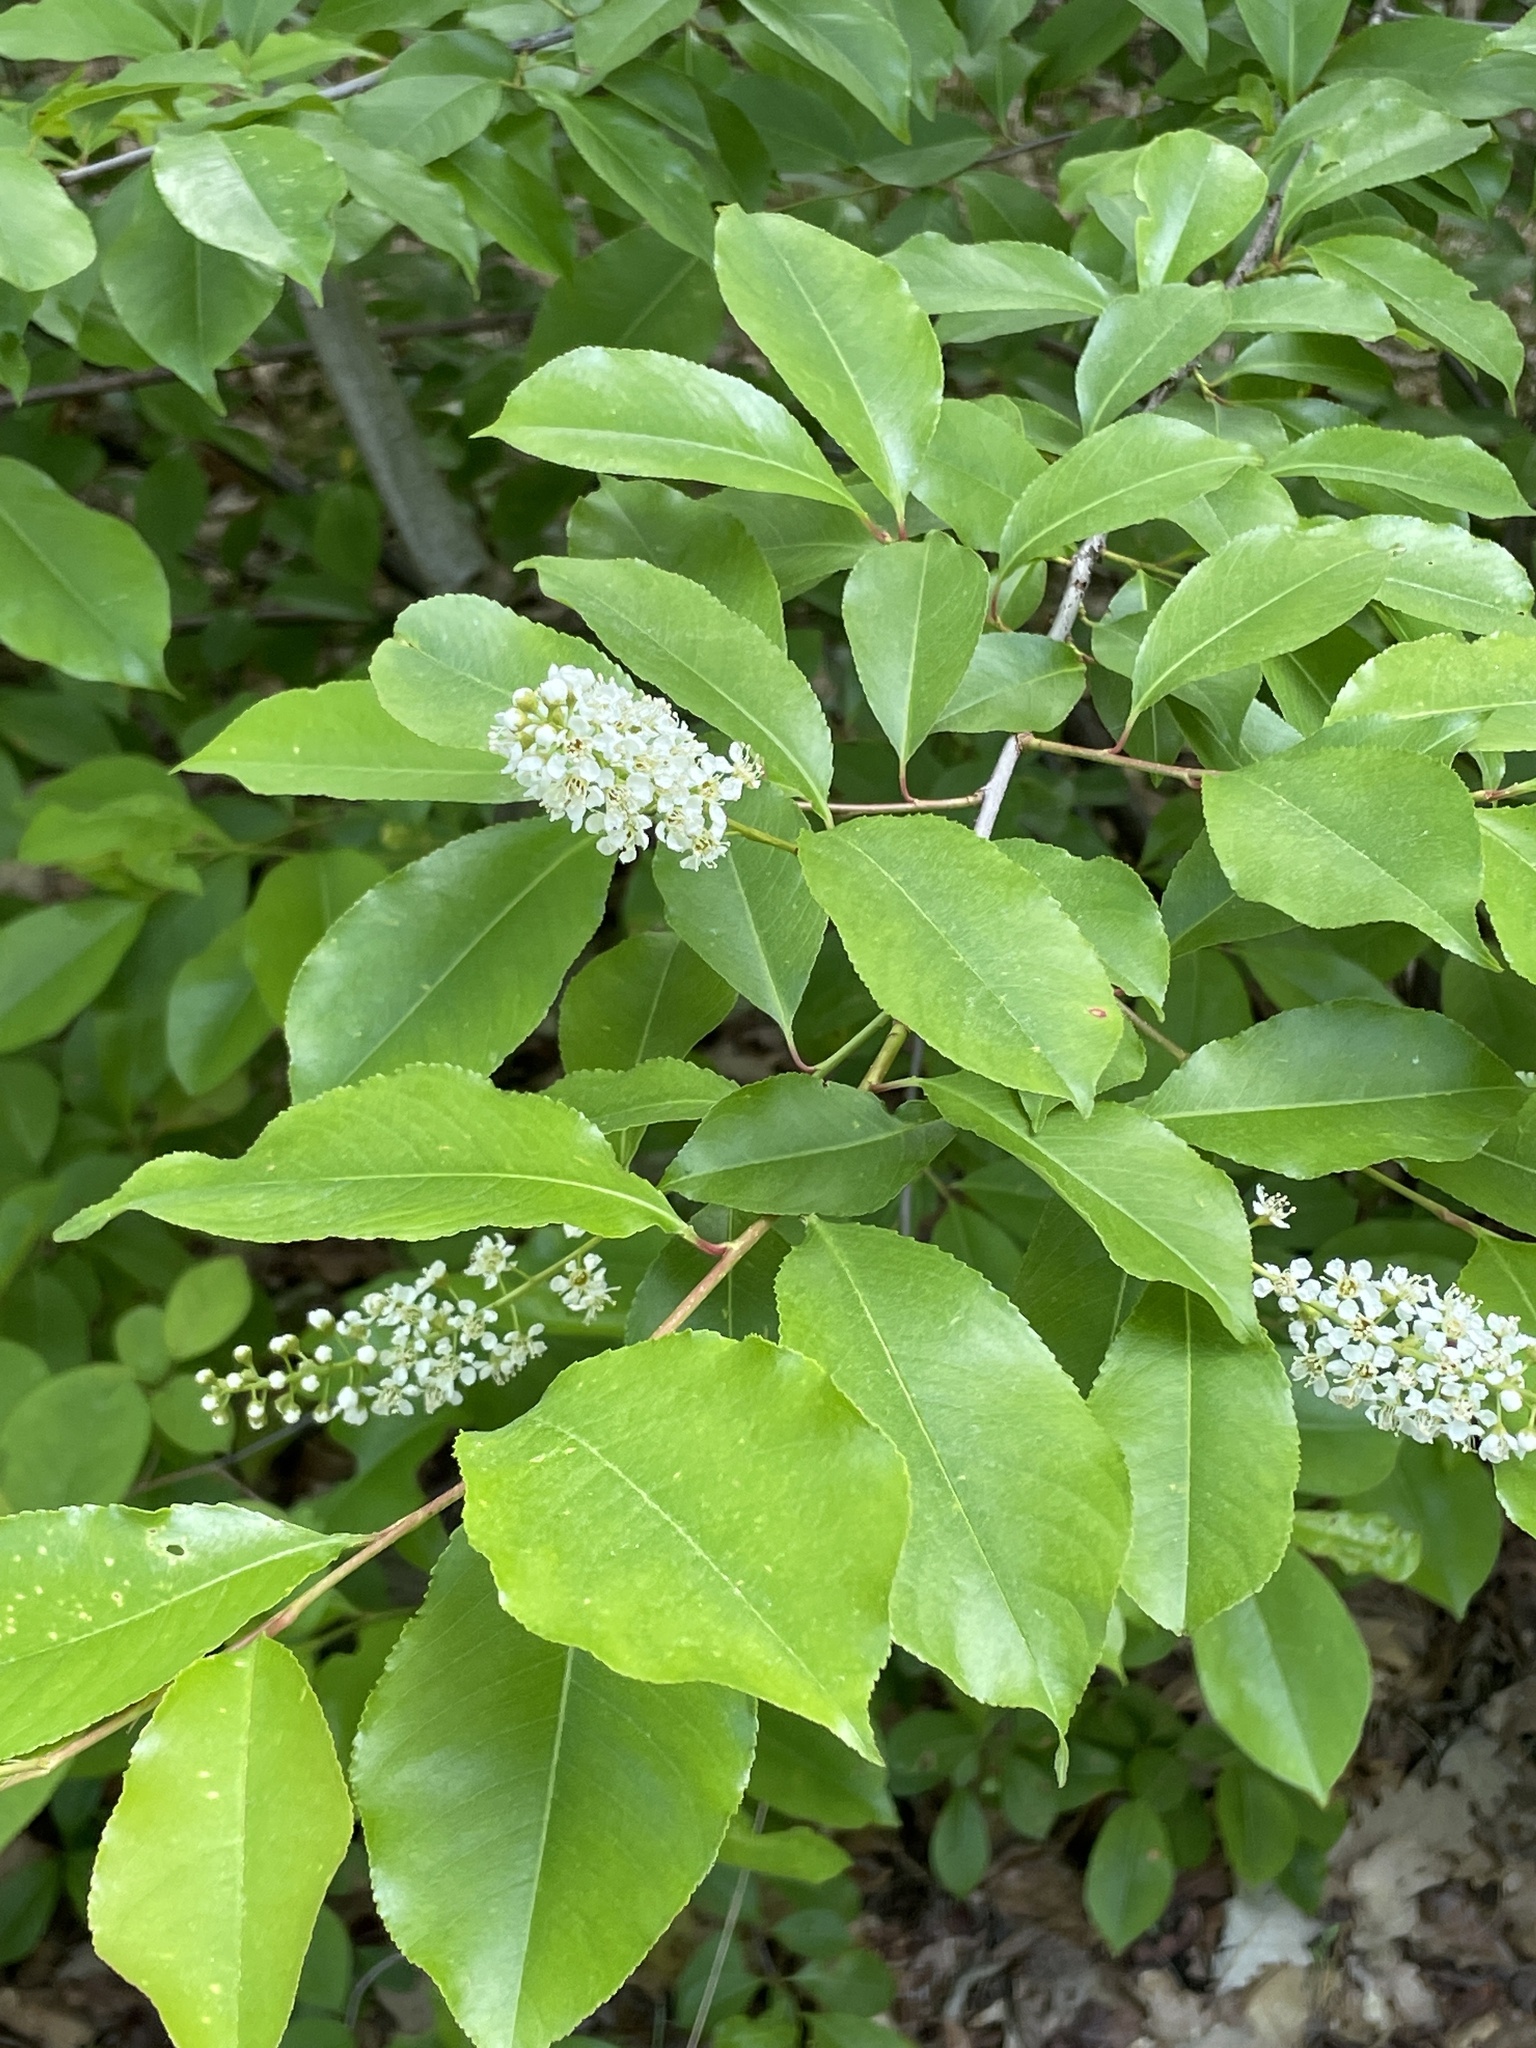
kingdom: Plantae
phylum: Tracheophyta
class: Magnoliopsida
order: Rosales
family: Rosaceae
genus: Prunus
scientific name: Prunus serotina
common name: Black cherry
